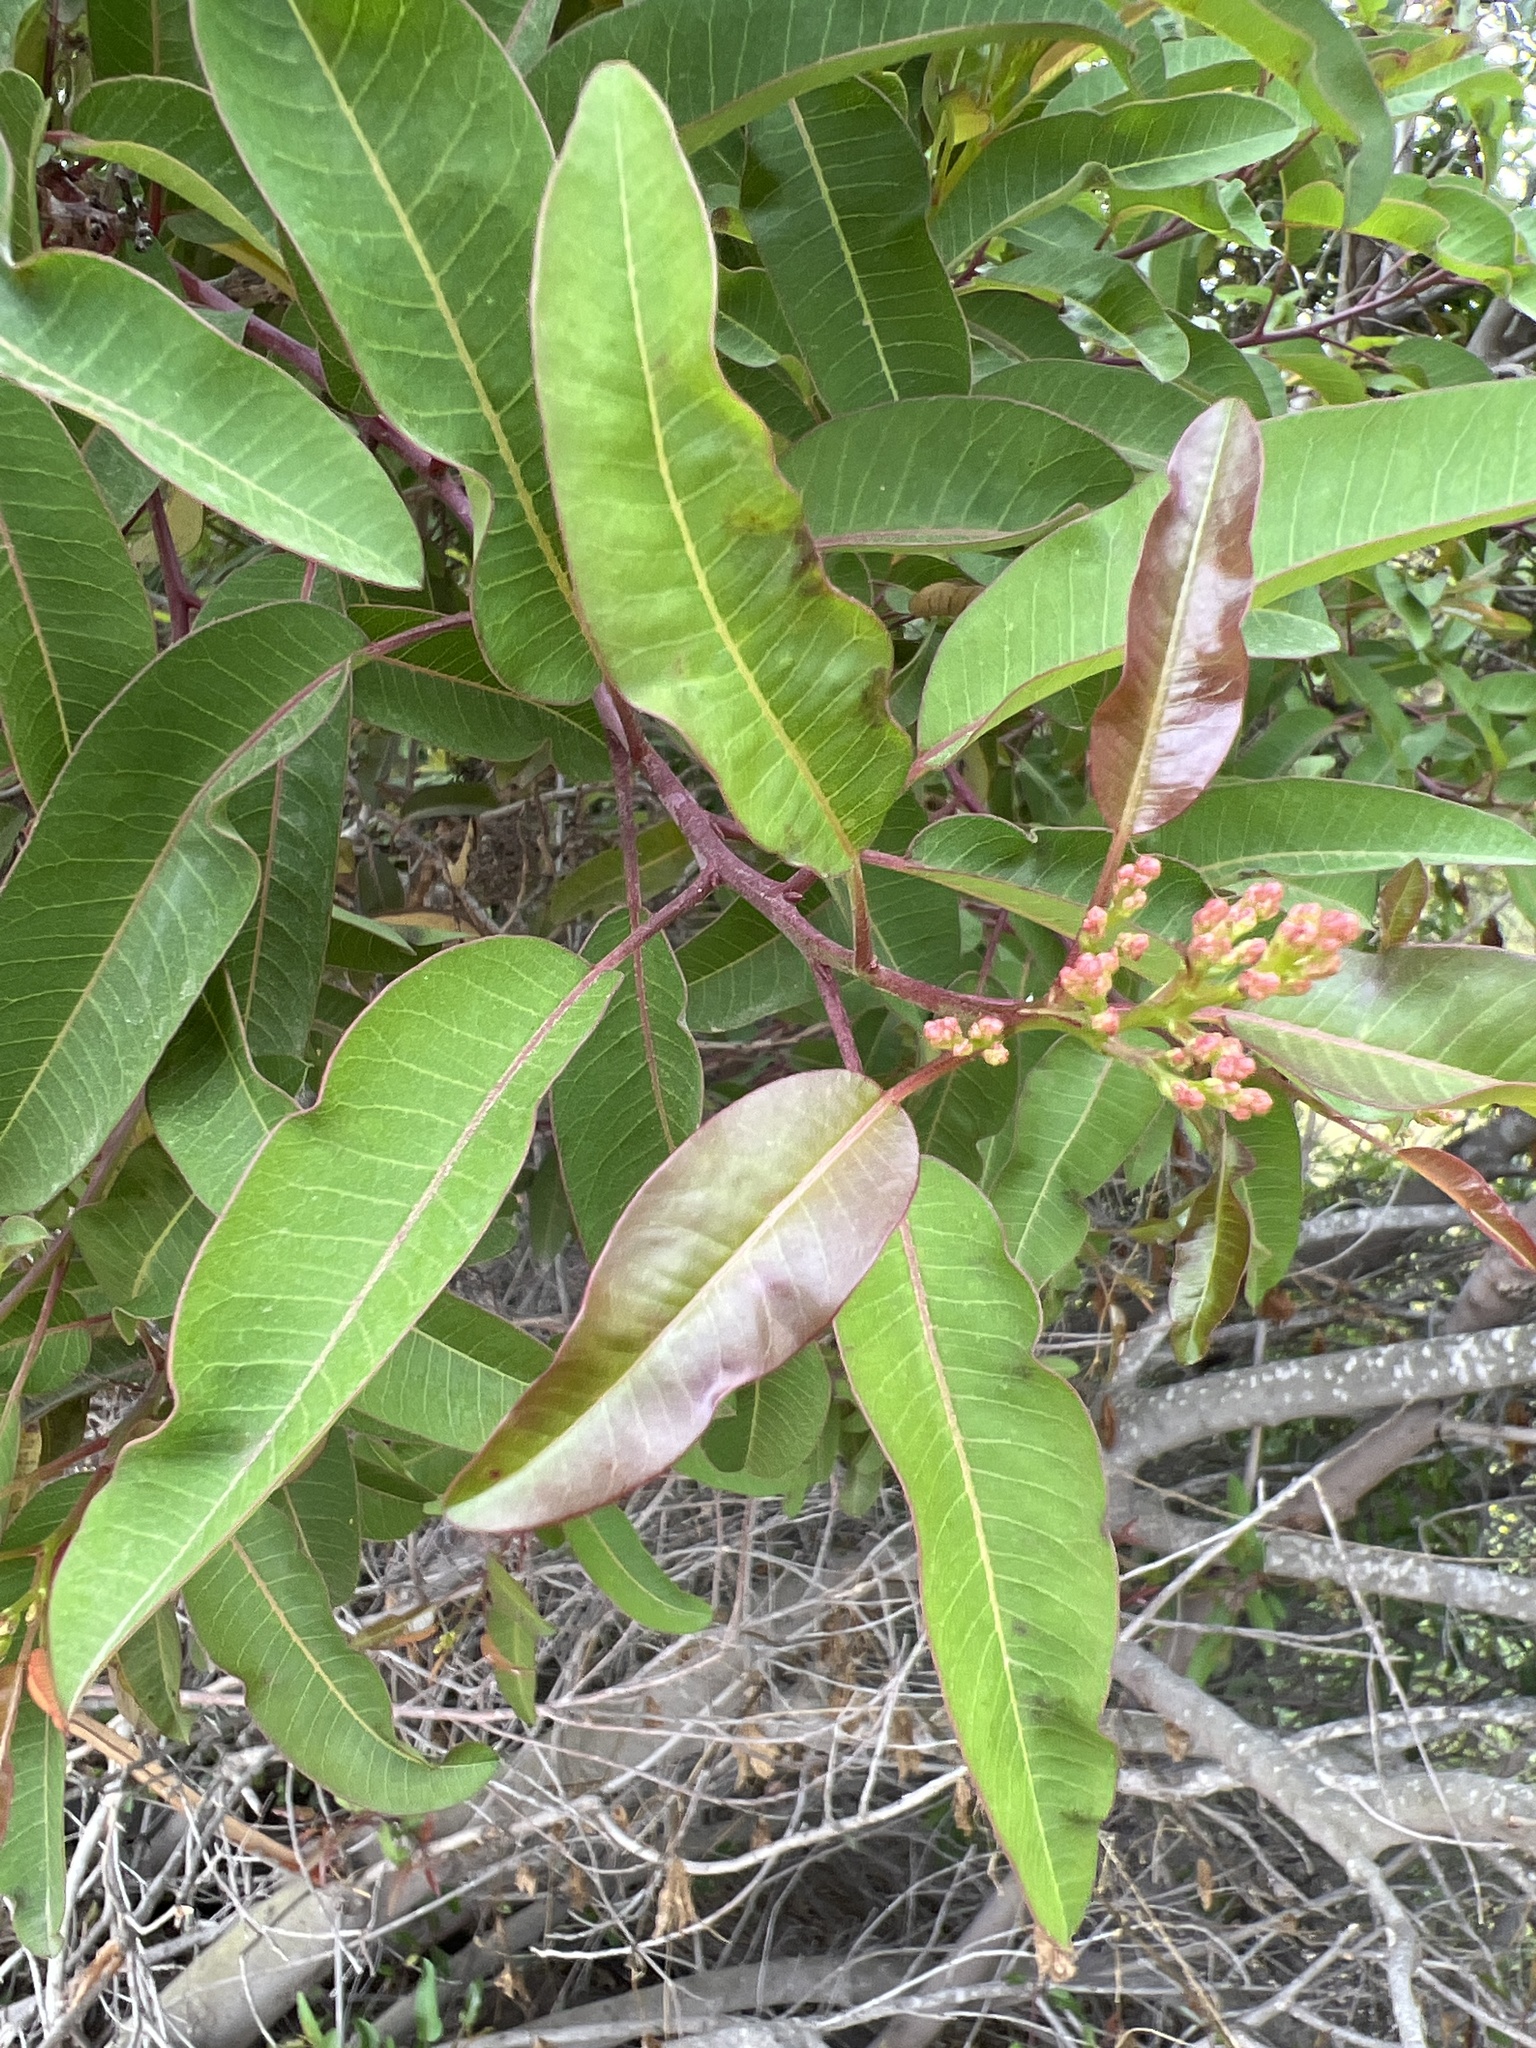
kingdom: Plantae
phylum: Tracheophyta
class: Magnoliopsida
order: Sapindales
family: Anacardiaceae
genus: Malosma
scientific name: Malosma laurina
